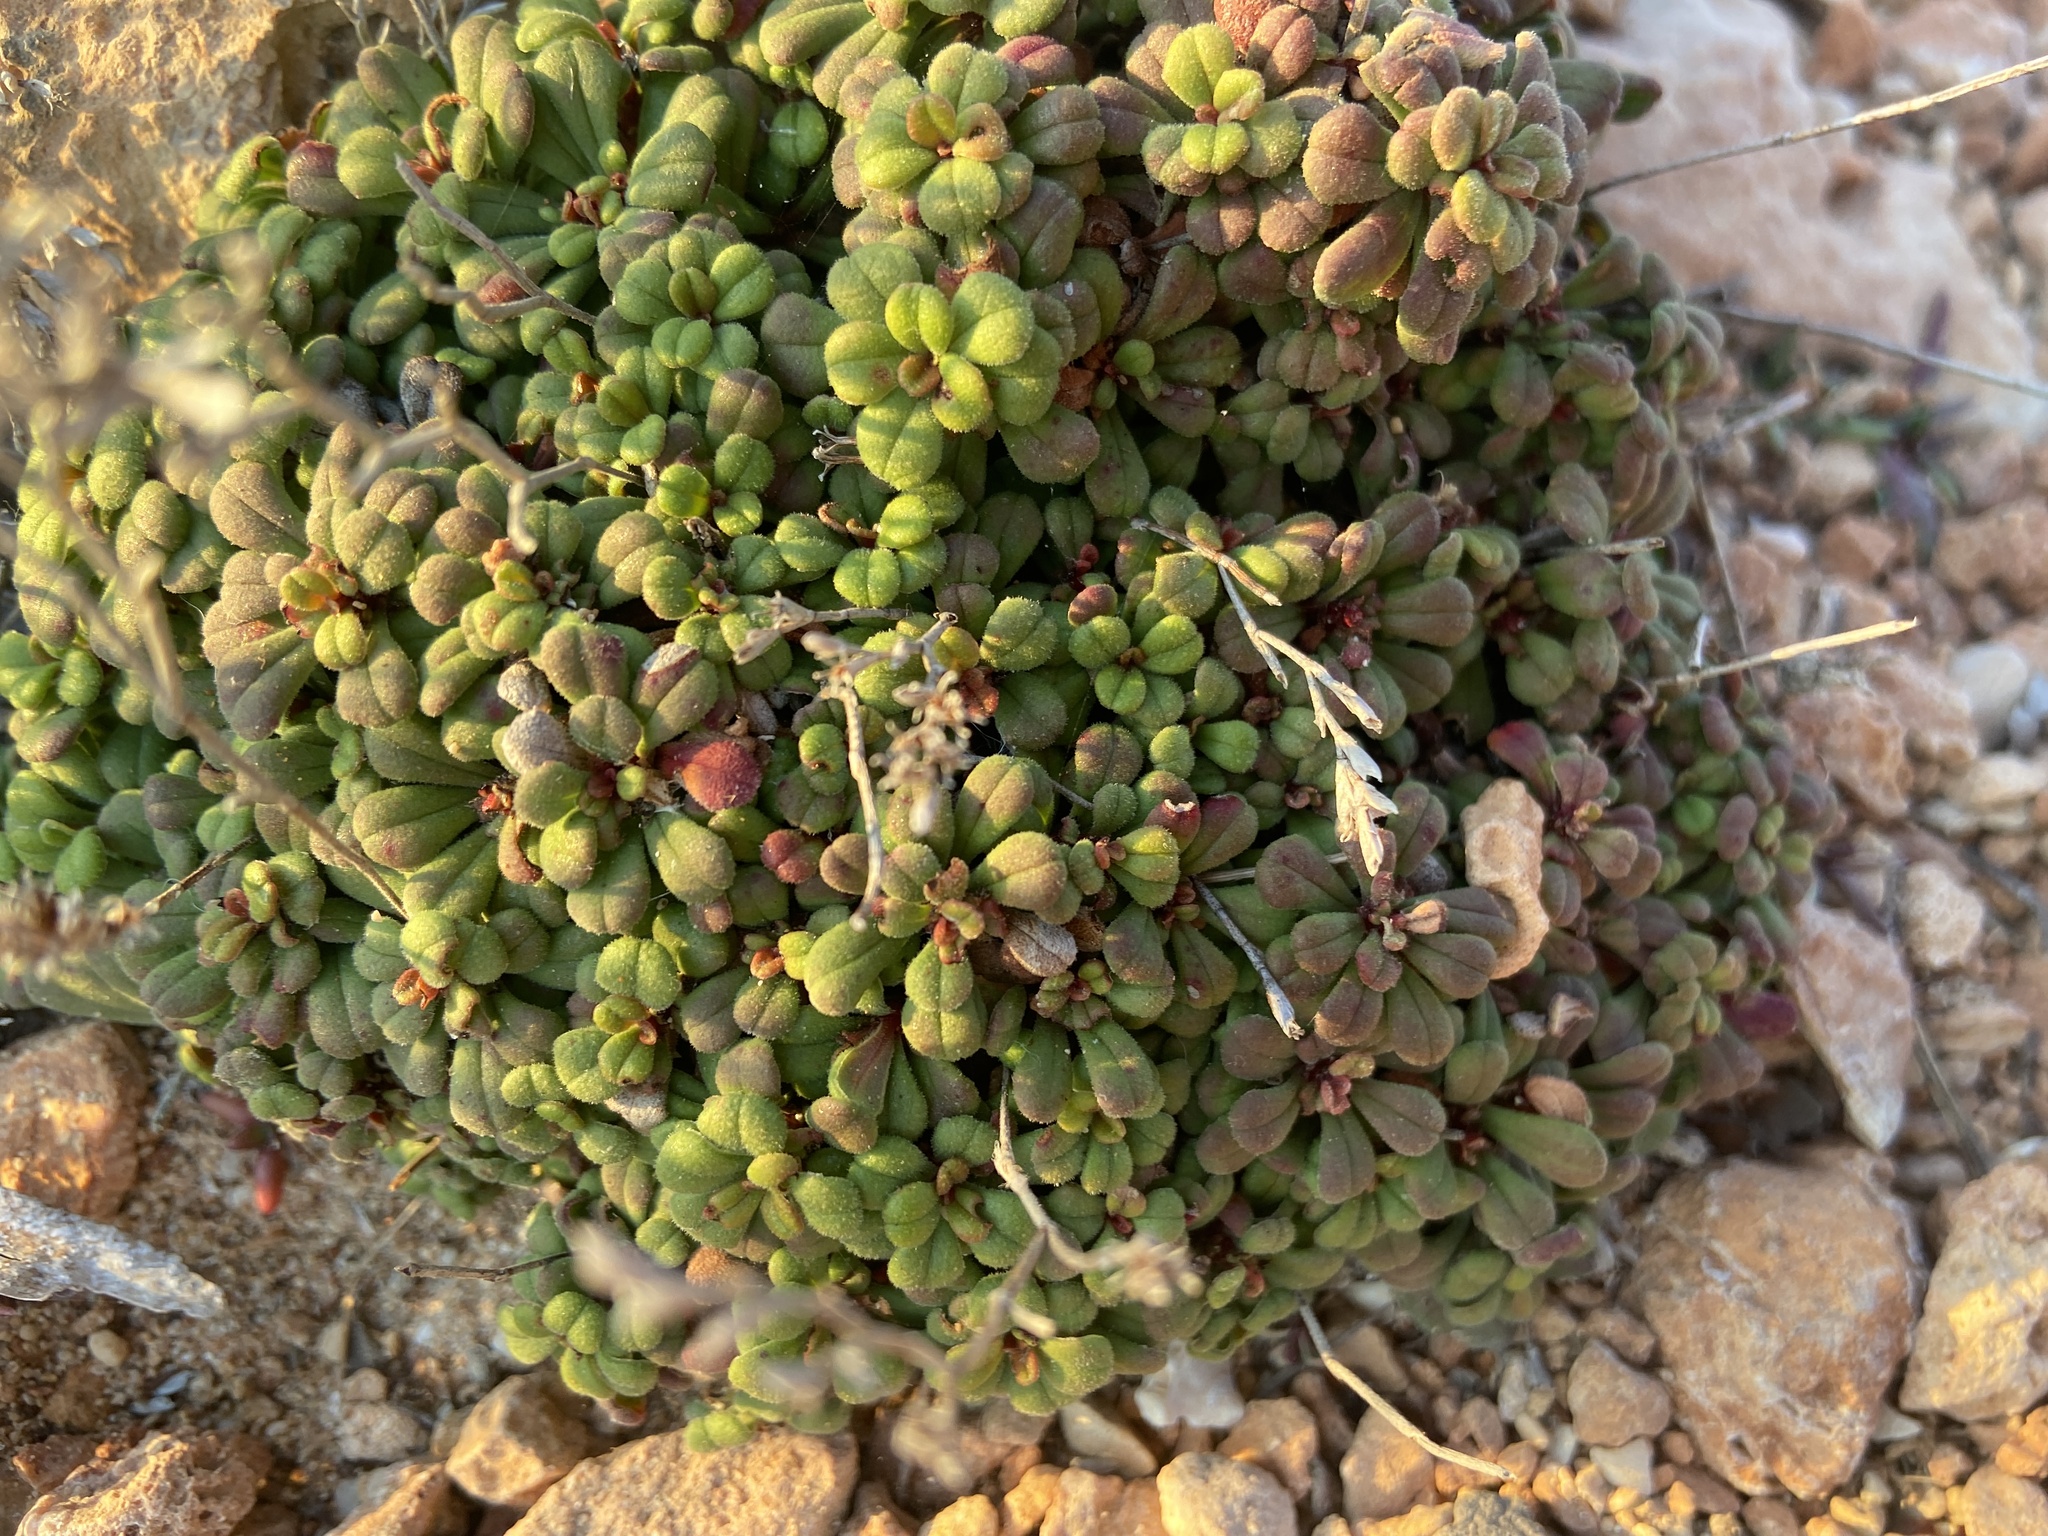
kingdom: Plantae
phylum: Tracheophyta
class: Magnoliopsida
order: Caryophyllales
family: Plumbaginaceae
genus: Limonium
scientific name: Limonium minutum
